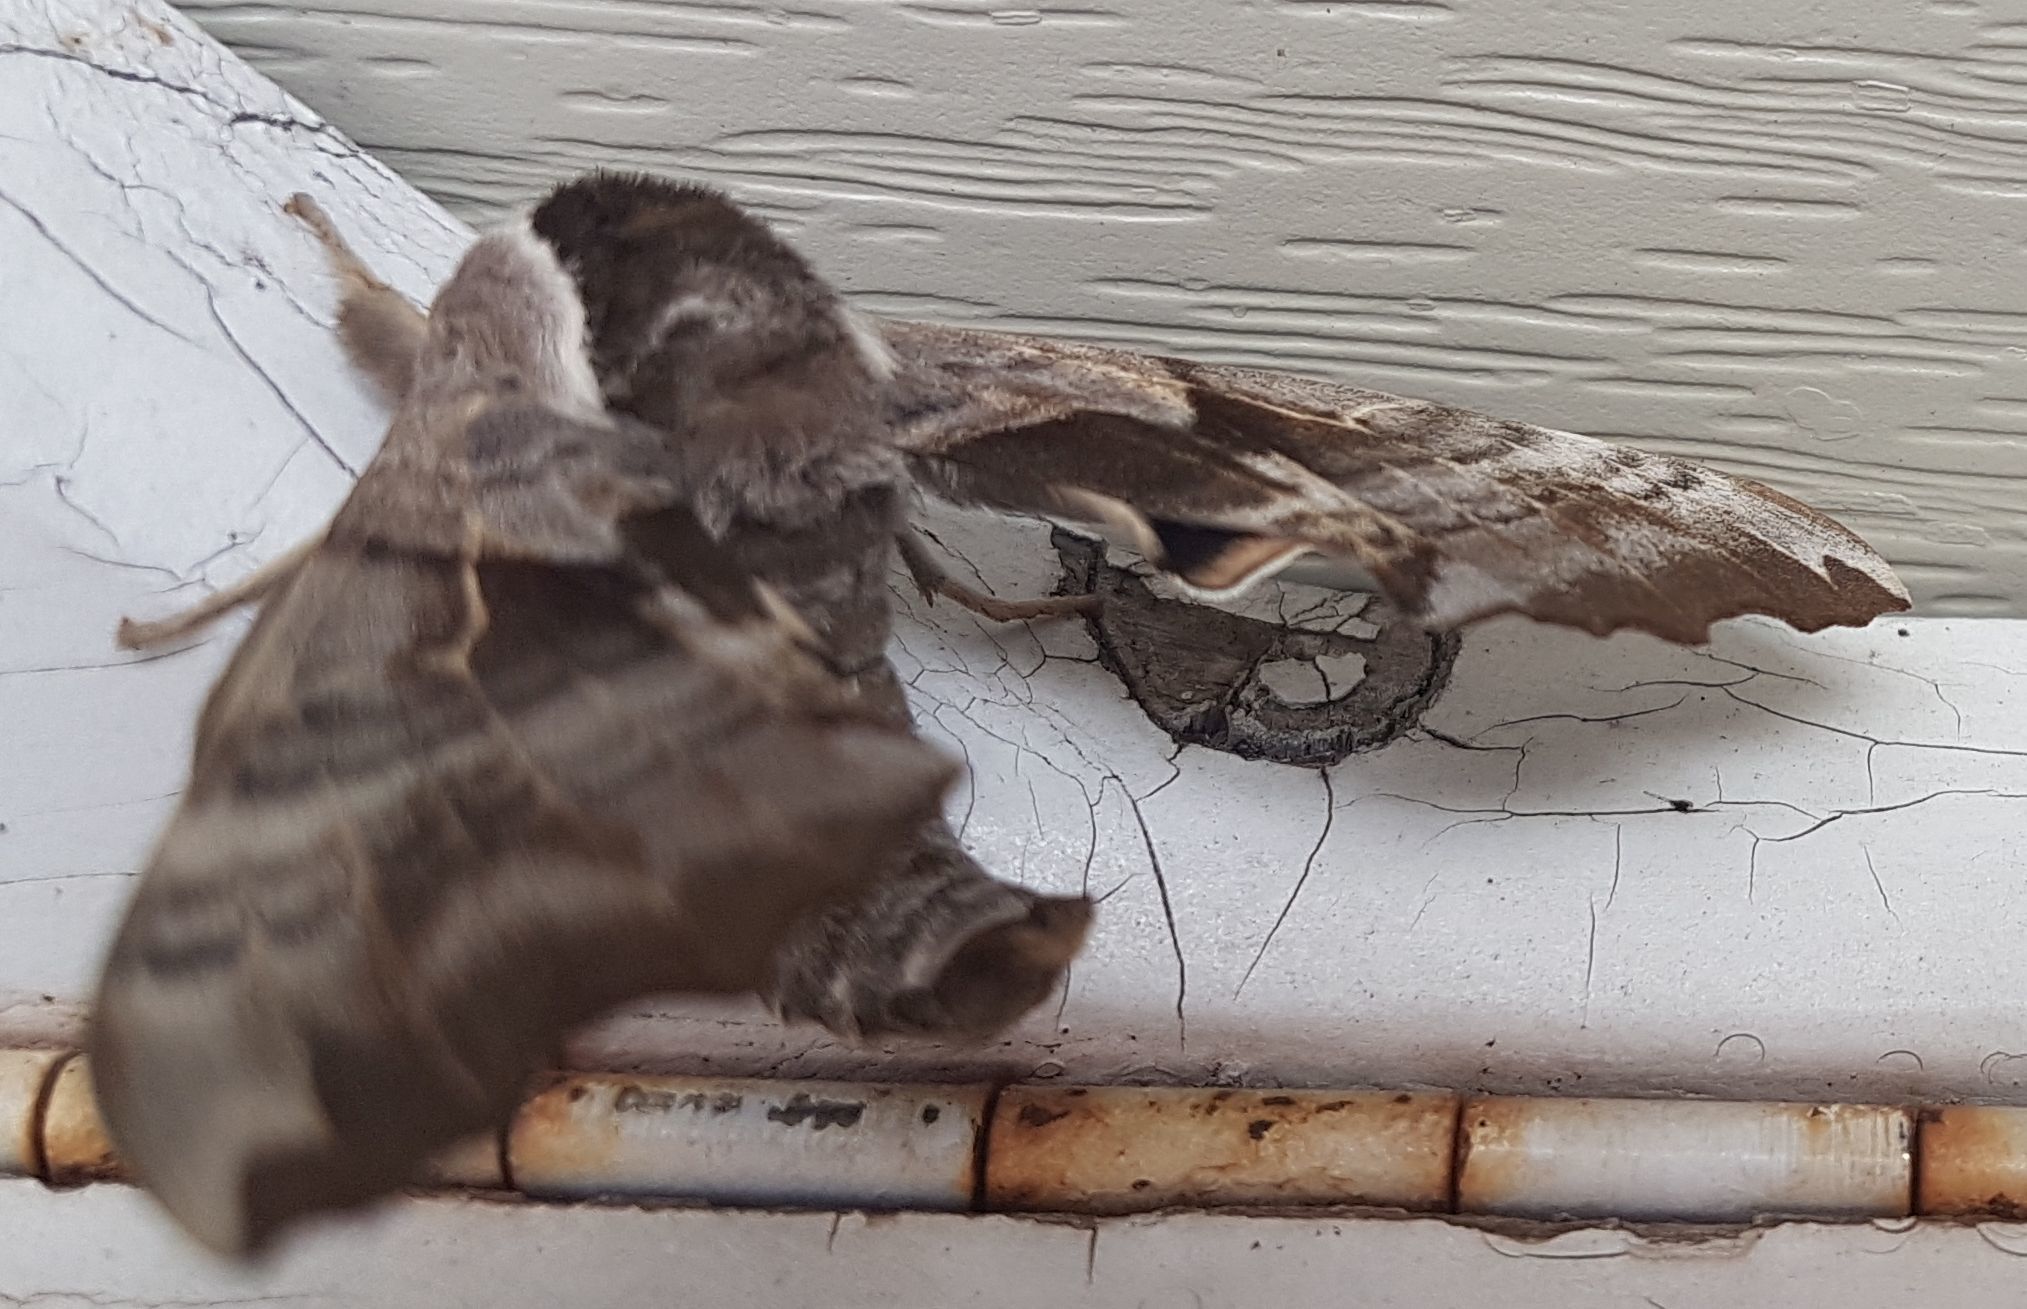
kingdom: Animalia
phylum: Arthropoda
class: Insecta
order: Lepidoptera
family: Sphingidae
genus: Smerinthus
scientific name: Smerinthus cerisyi
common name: Cerisy's sphinx moth
